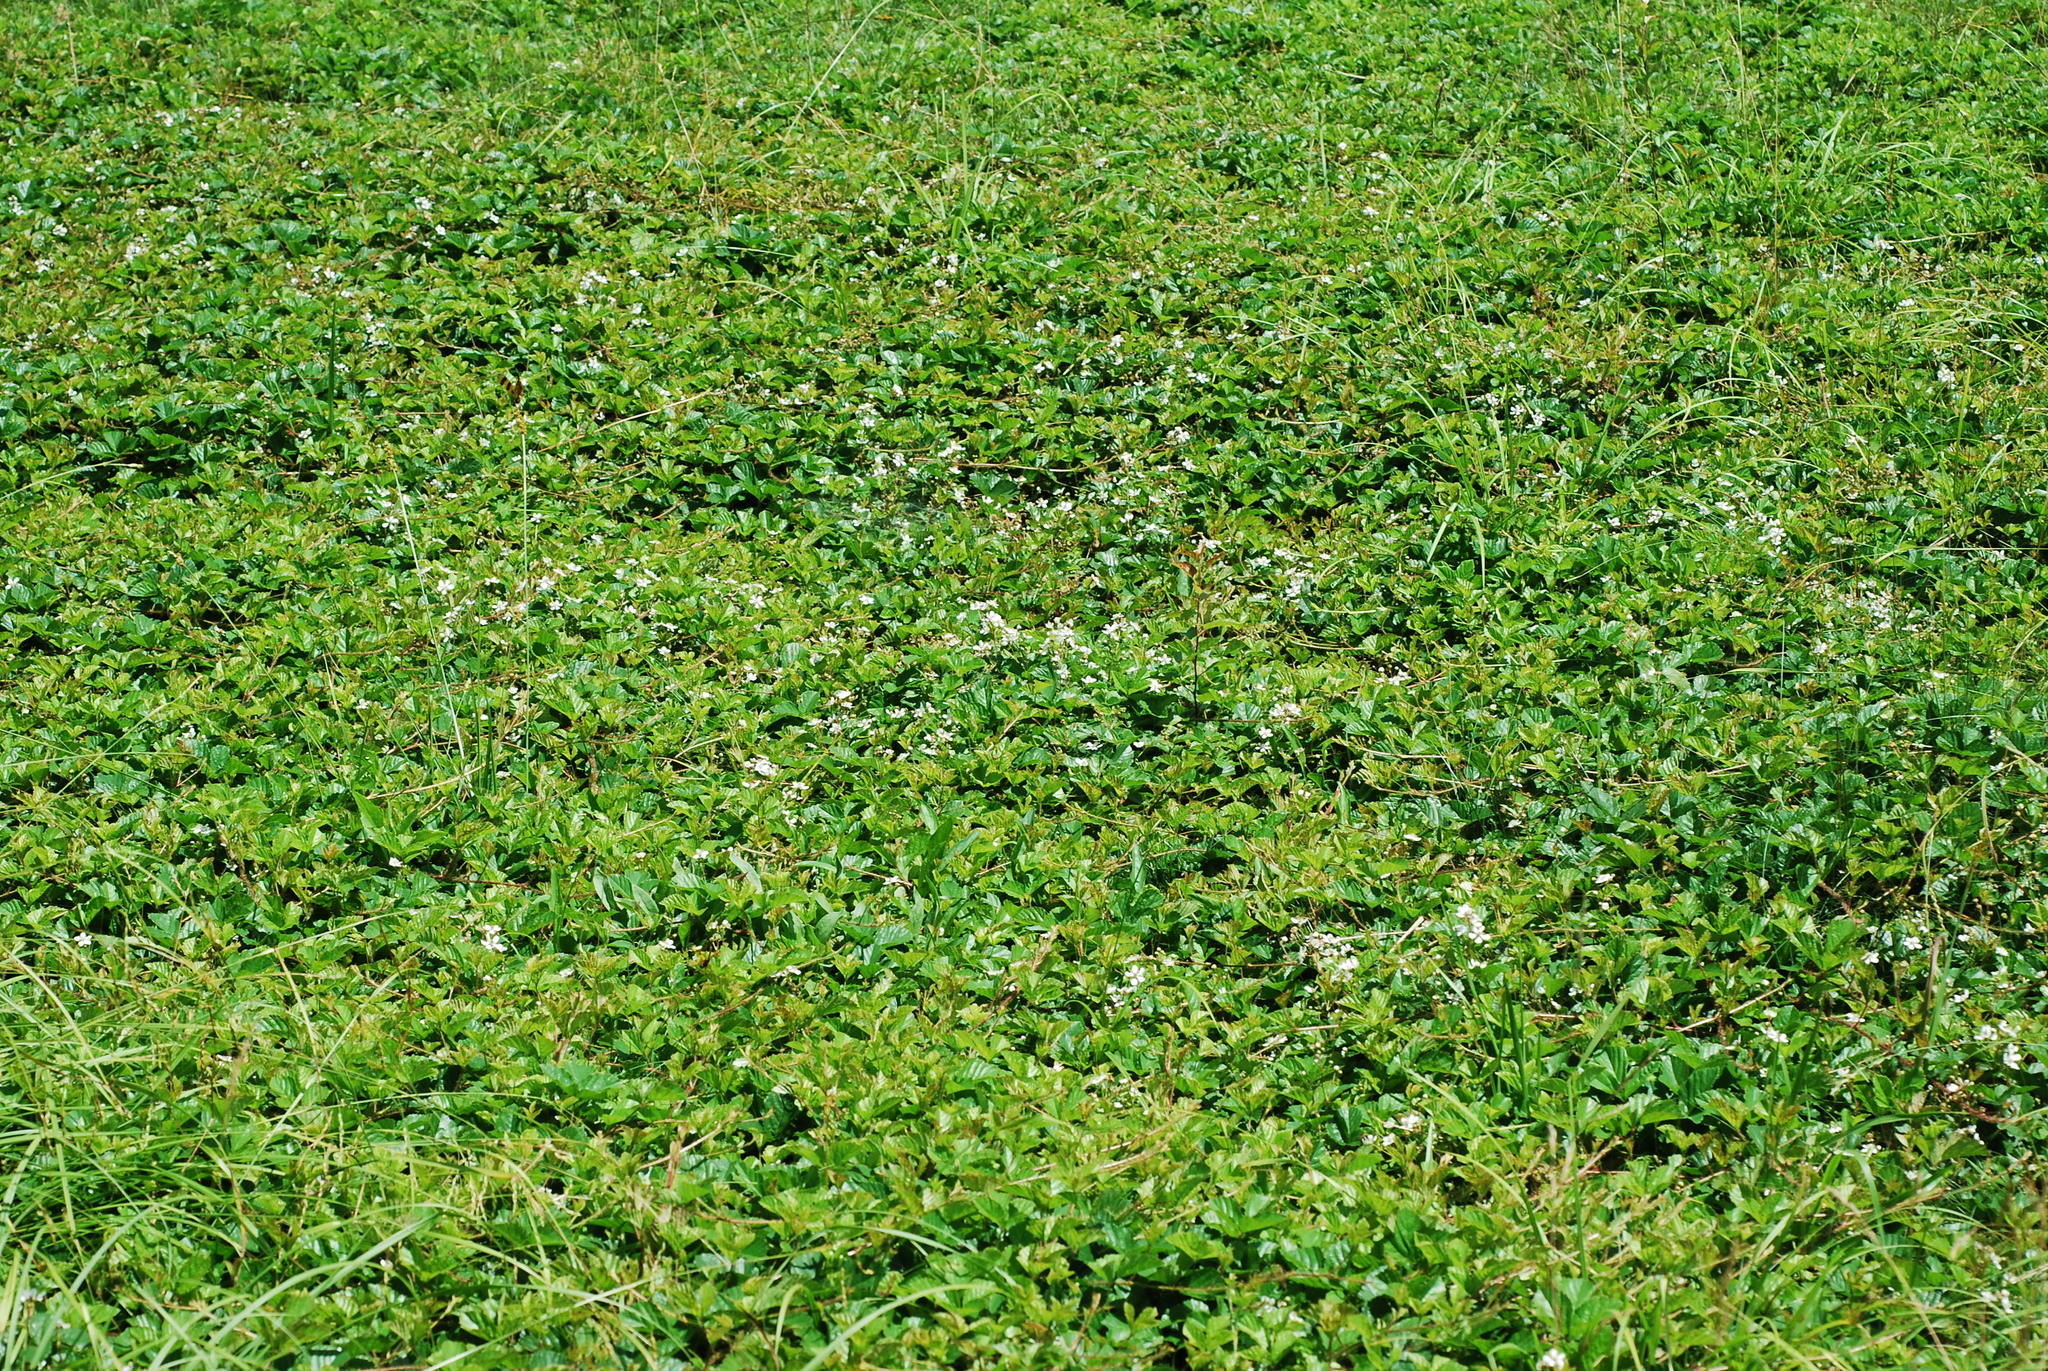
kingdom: Plantae
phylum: Tracheophyta
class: Magnoliopsida
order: Rosales
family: Rosaceae
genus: Rubus
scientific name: Rubus hispidus
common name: Running blackberry
